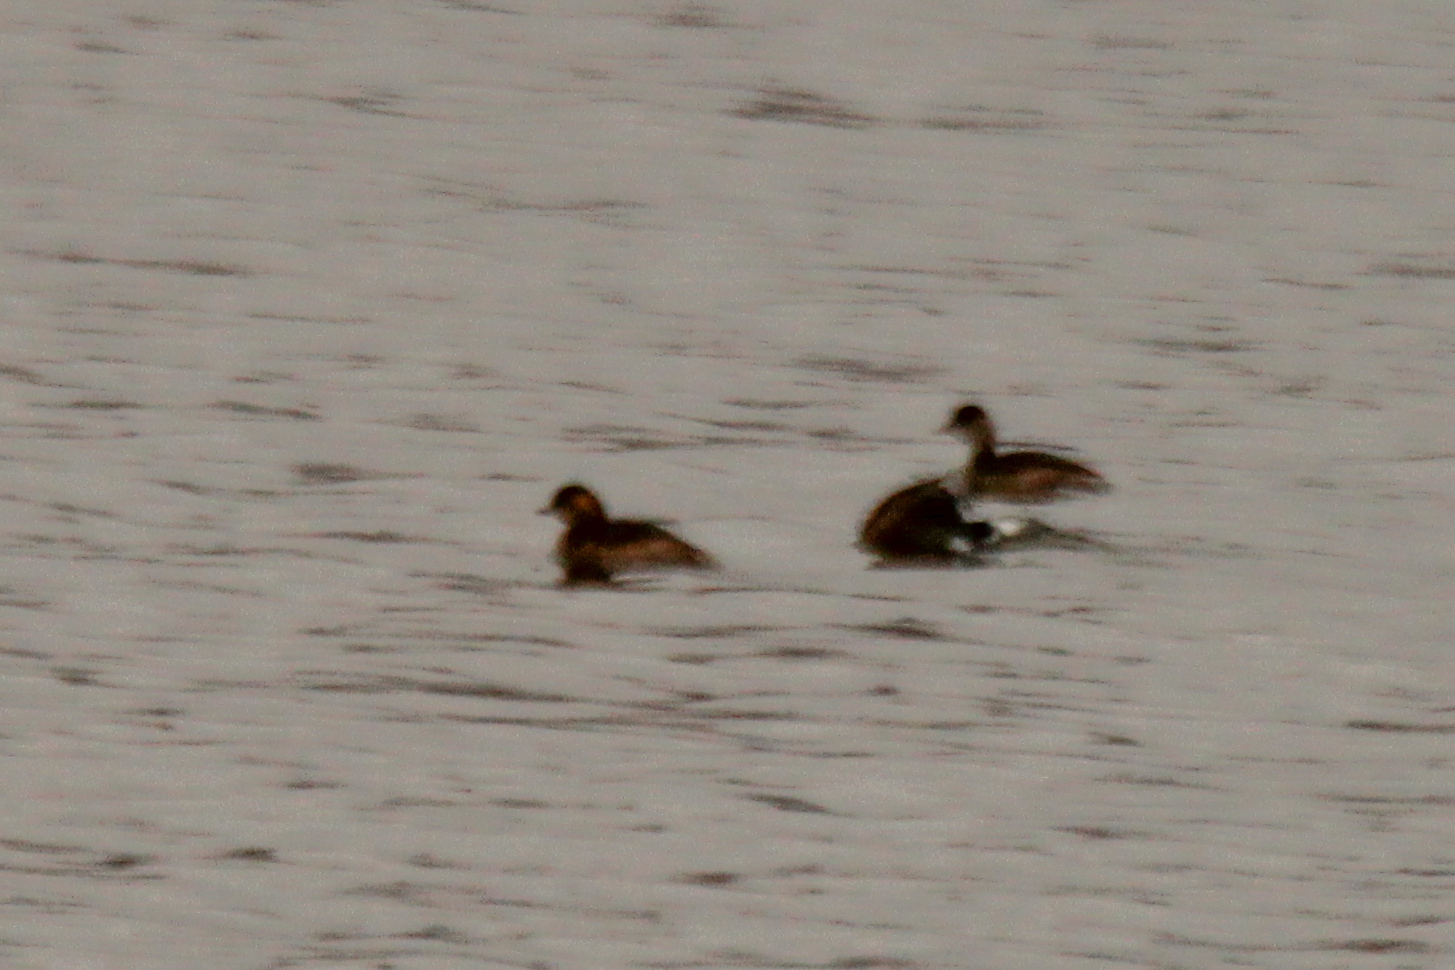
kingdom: Animalia
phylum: Chordata
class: Aves
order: Podicipediformes
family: Podicipedidae
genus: Tachybaptus
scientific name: Tachybaptus ruficollis
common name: Little grebe
